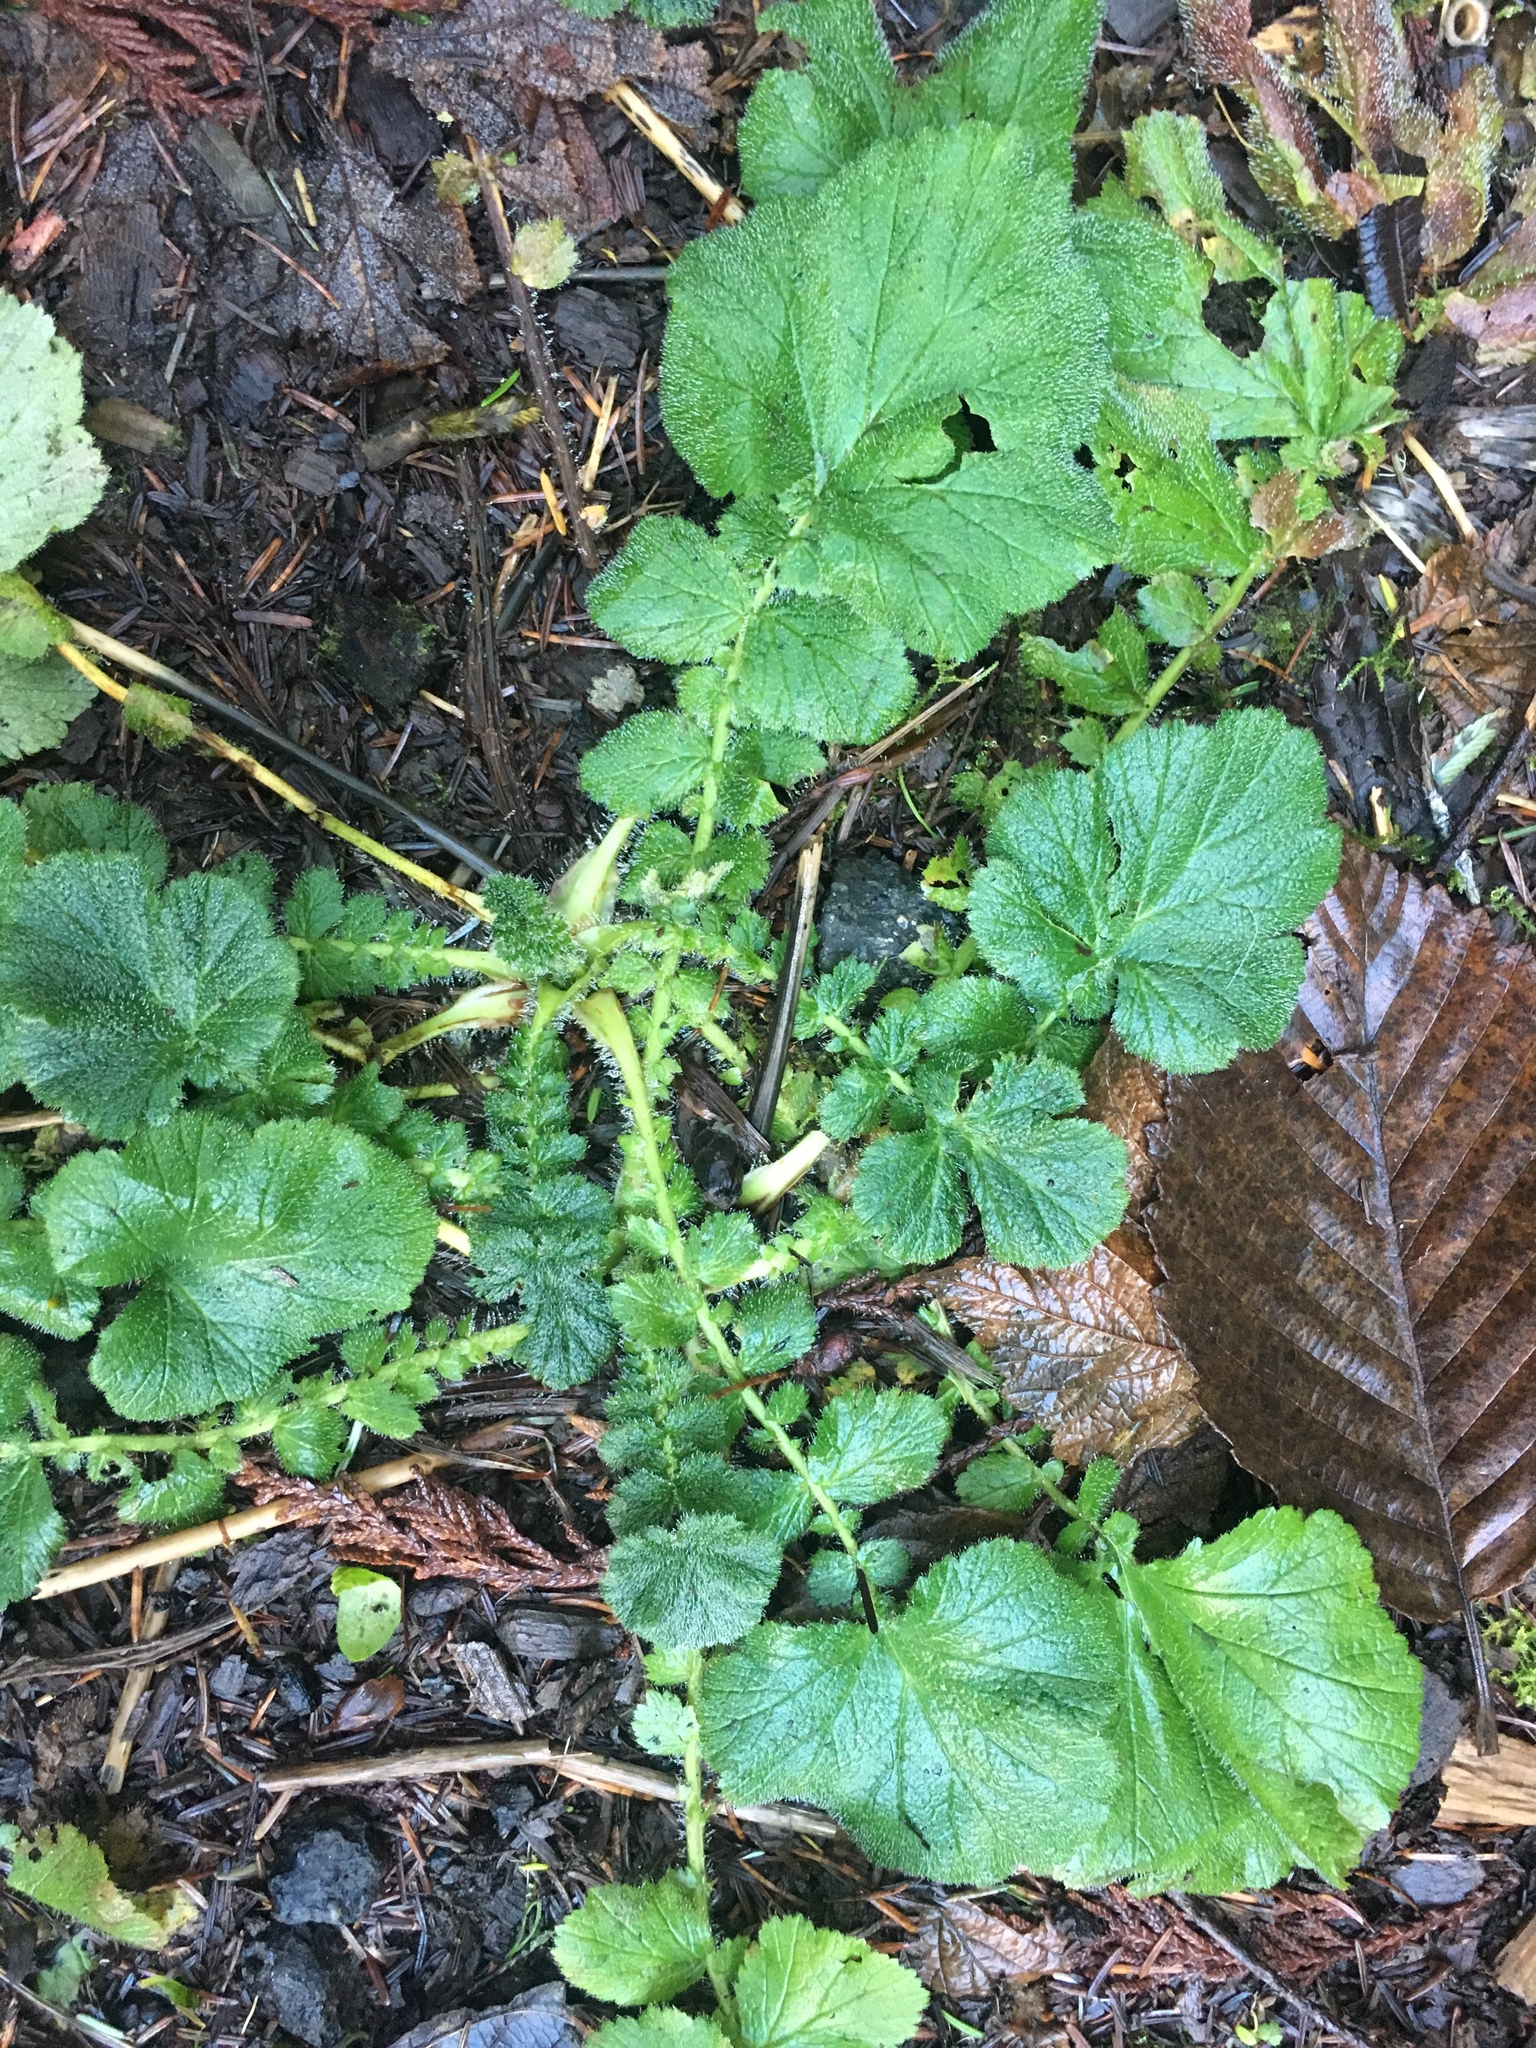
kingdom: Plantae
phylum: Tracheophyta
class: Magnoliopsida
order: Rosales
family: Rosaceae
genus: Geum
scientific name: Geum macrophyllum
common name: Large-leaved avens
